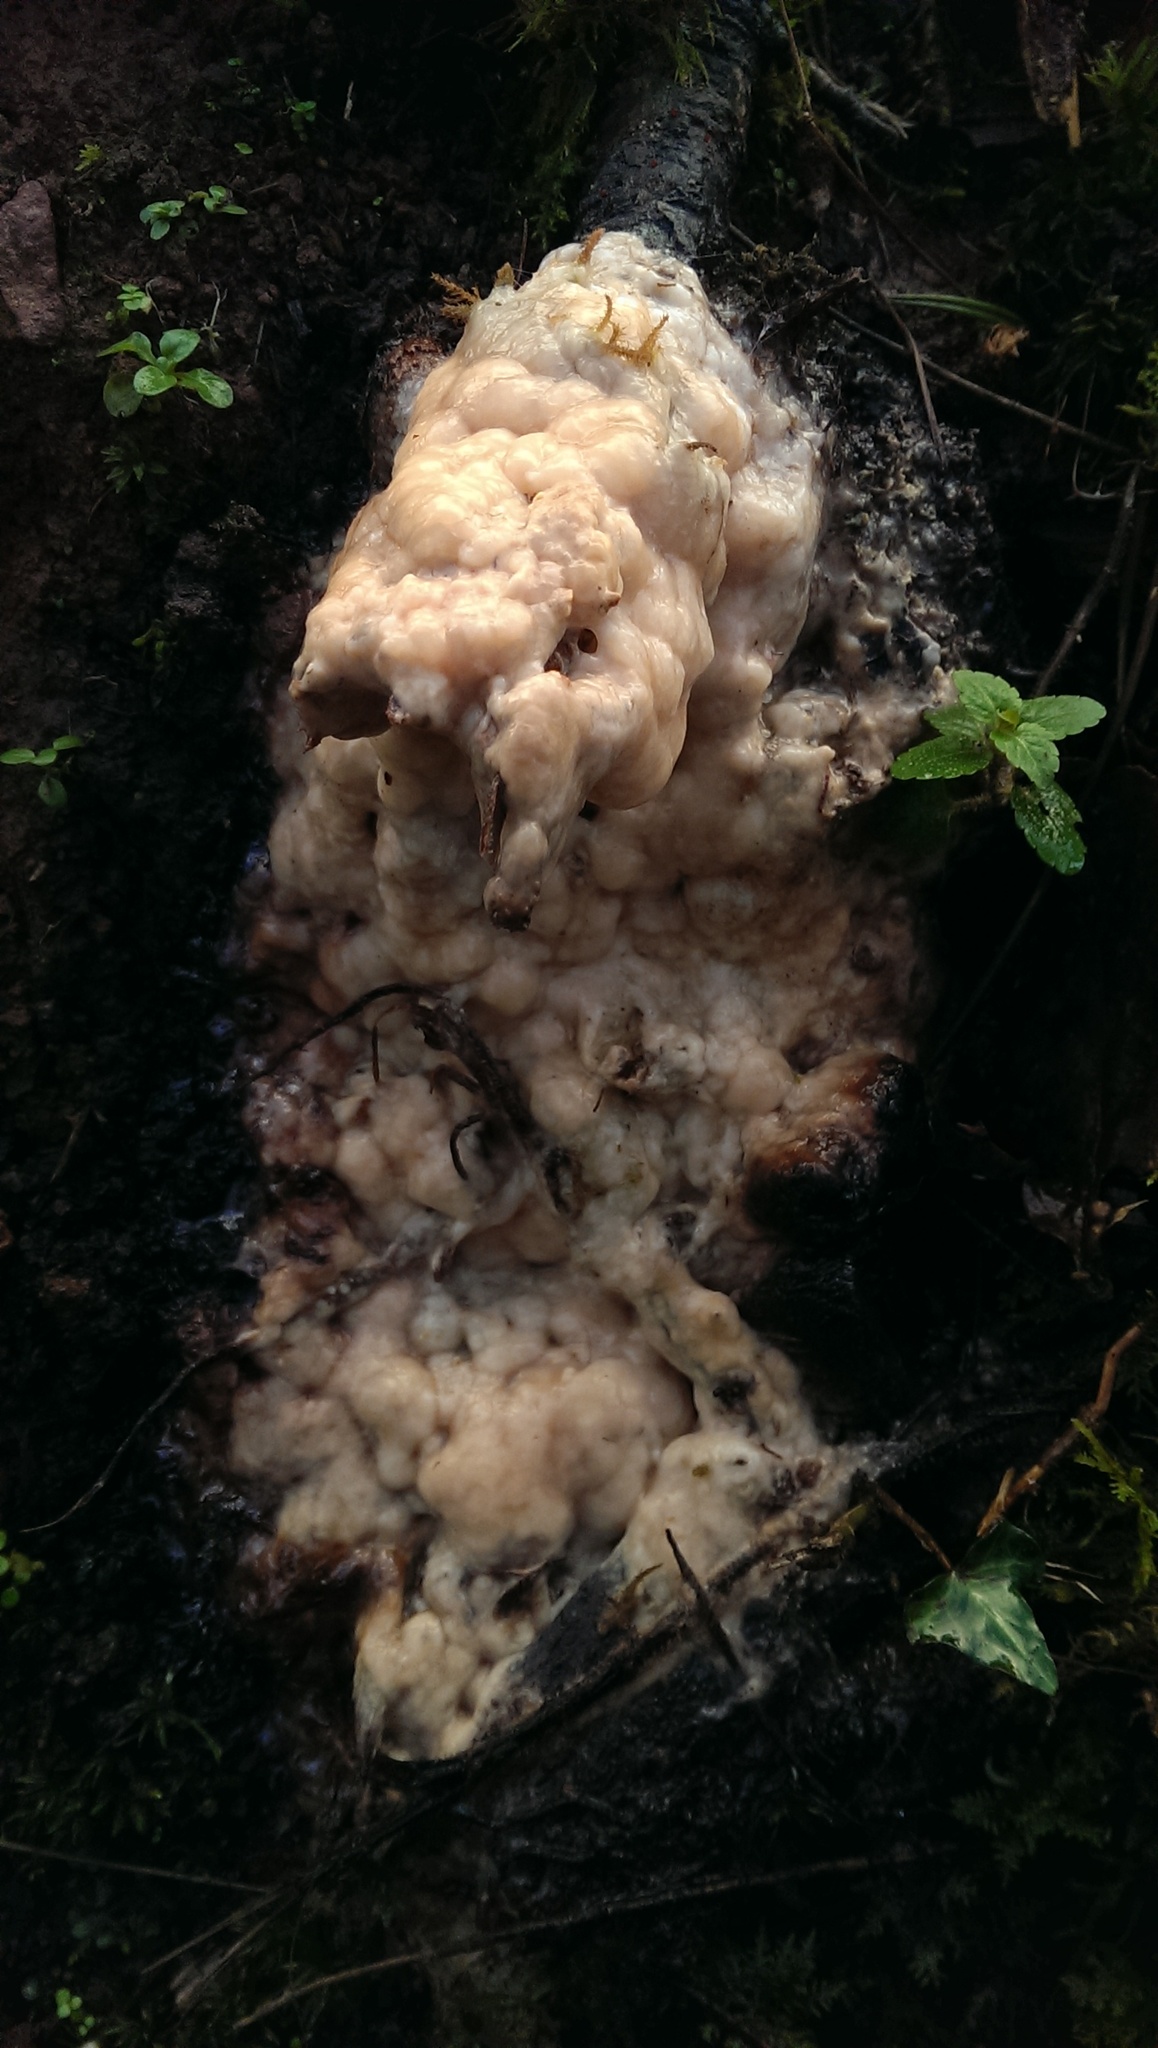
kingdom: Fungi
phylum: Ascomycota
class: Sordariomycetes
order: Hypocreales
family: Nectriaceae
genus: Fusicolla
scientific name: Fusicolla merismoides
